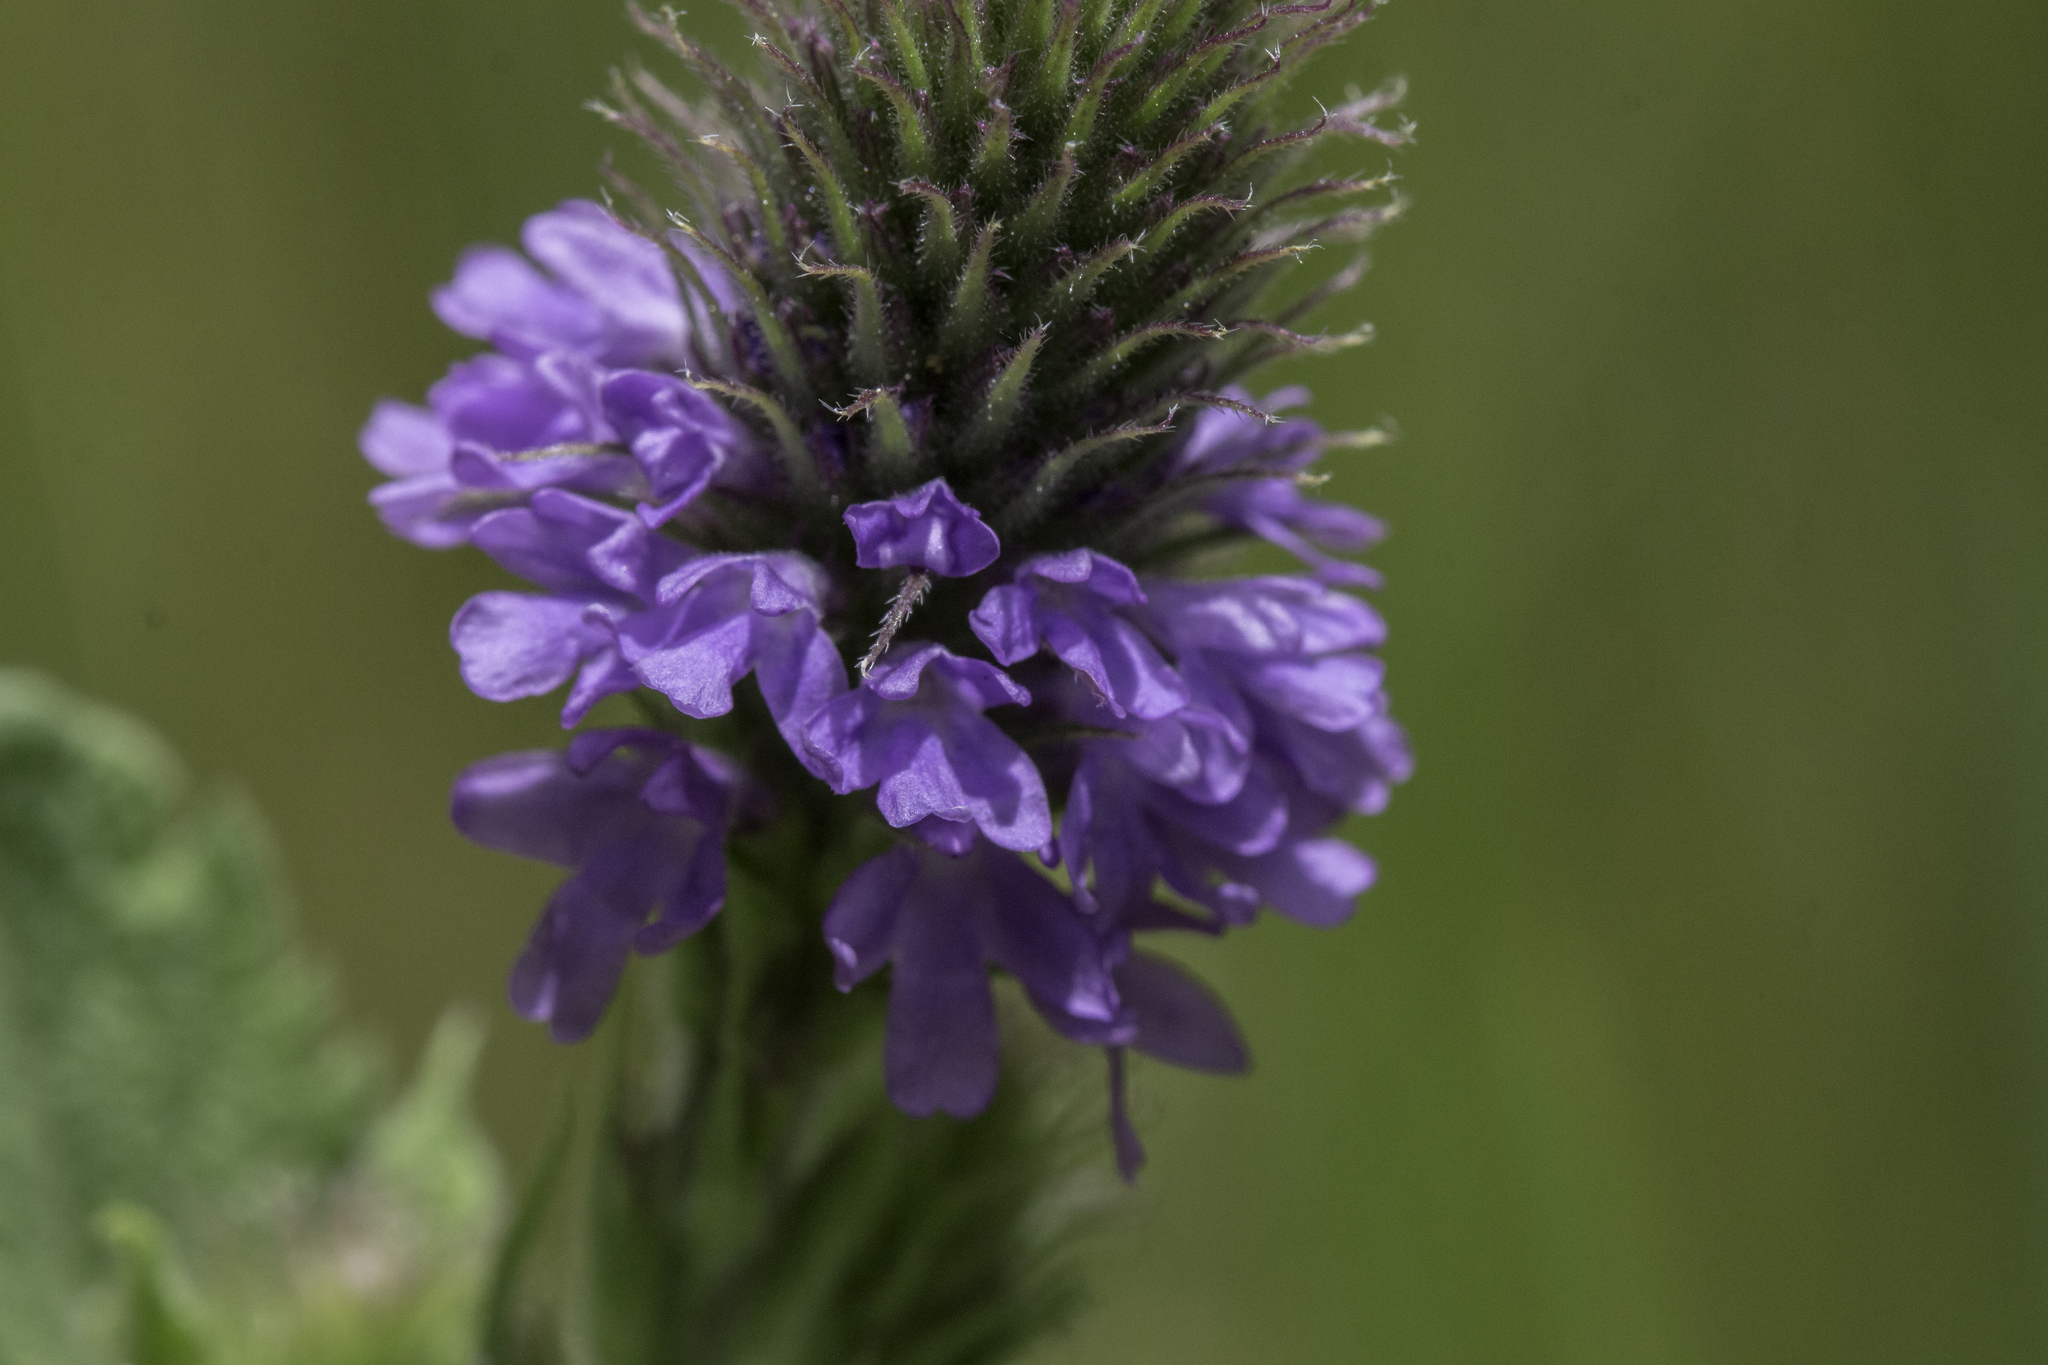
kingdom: Plantae
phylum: Tracheophyta
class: Magnoliopsida
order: Lamiales
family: Verbenaceae
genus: Verbena
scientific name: Verbena macdougalii
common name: New mexico vervain
